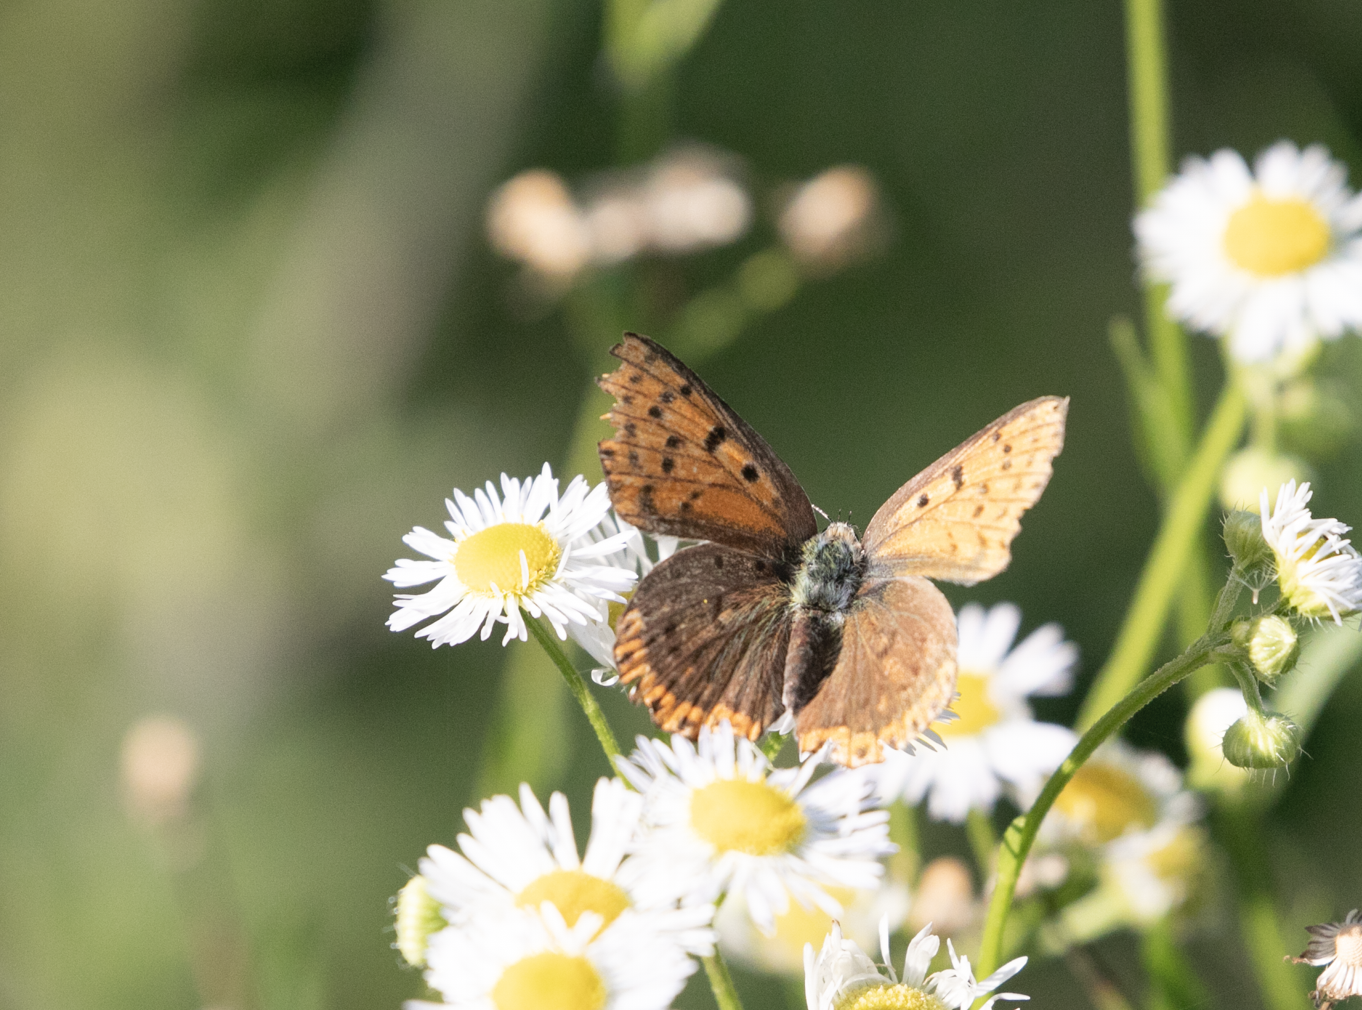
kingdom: Animalia
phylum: Arthropoda
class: Insecta
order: Lepidoptera
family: Lycaenidae
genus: Loweia
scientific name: Loweia tityrus
